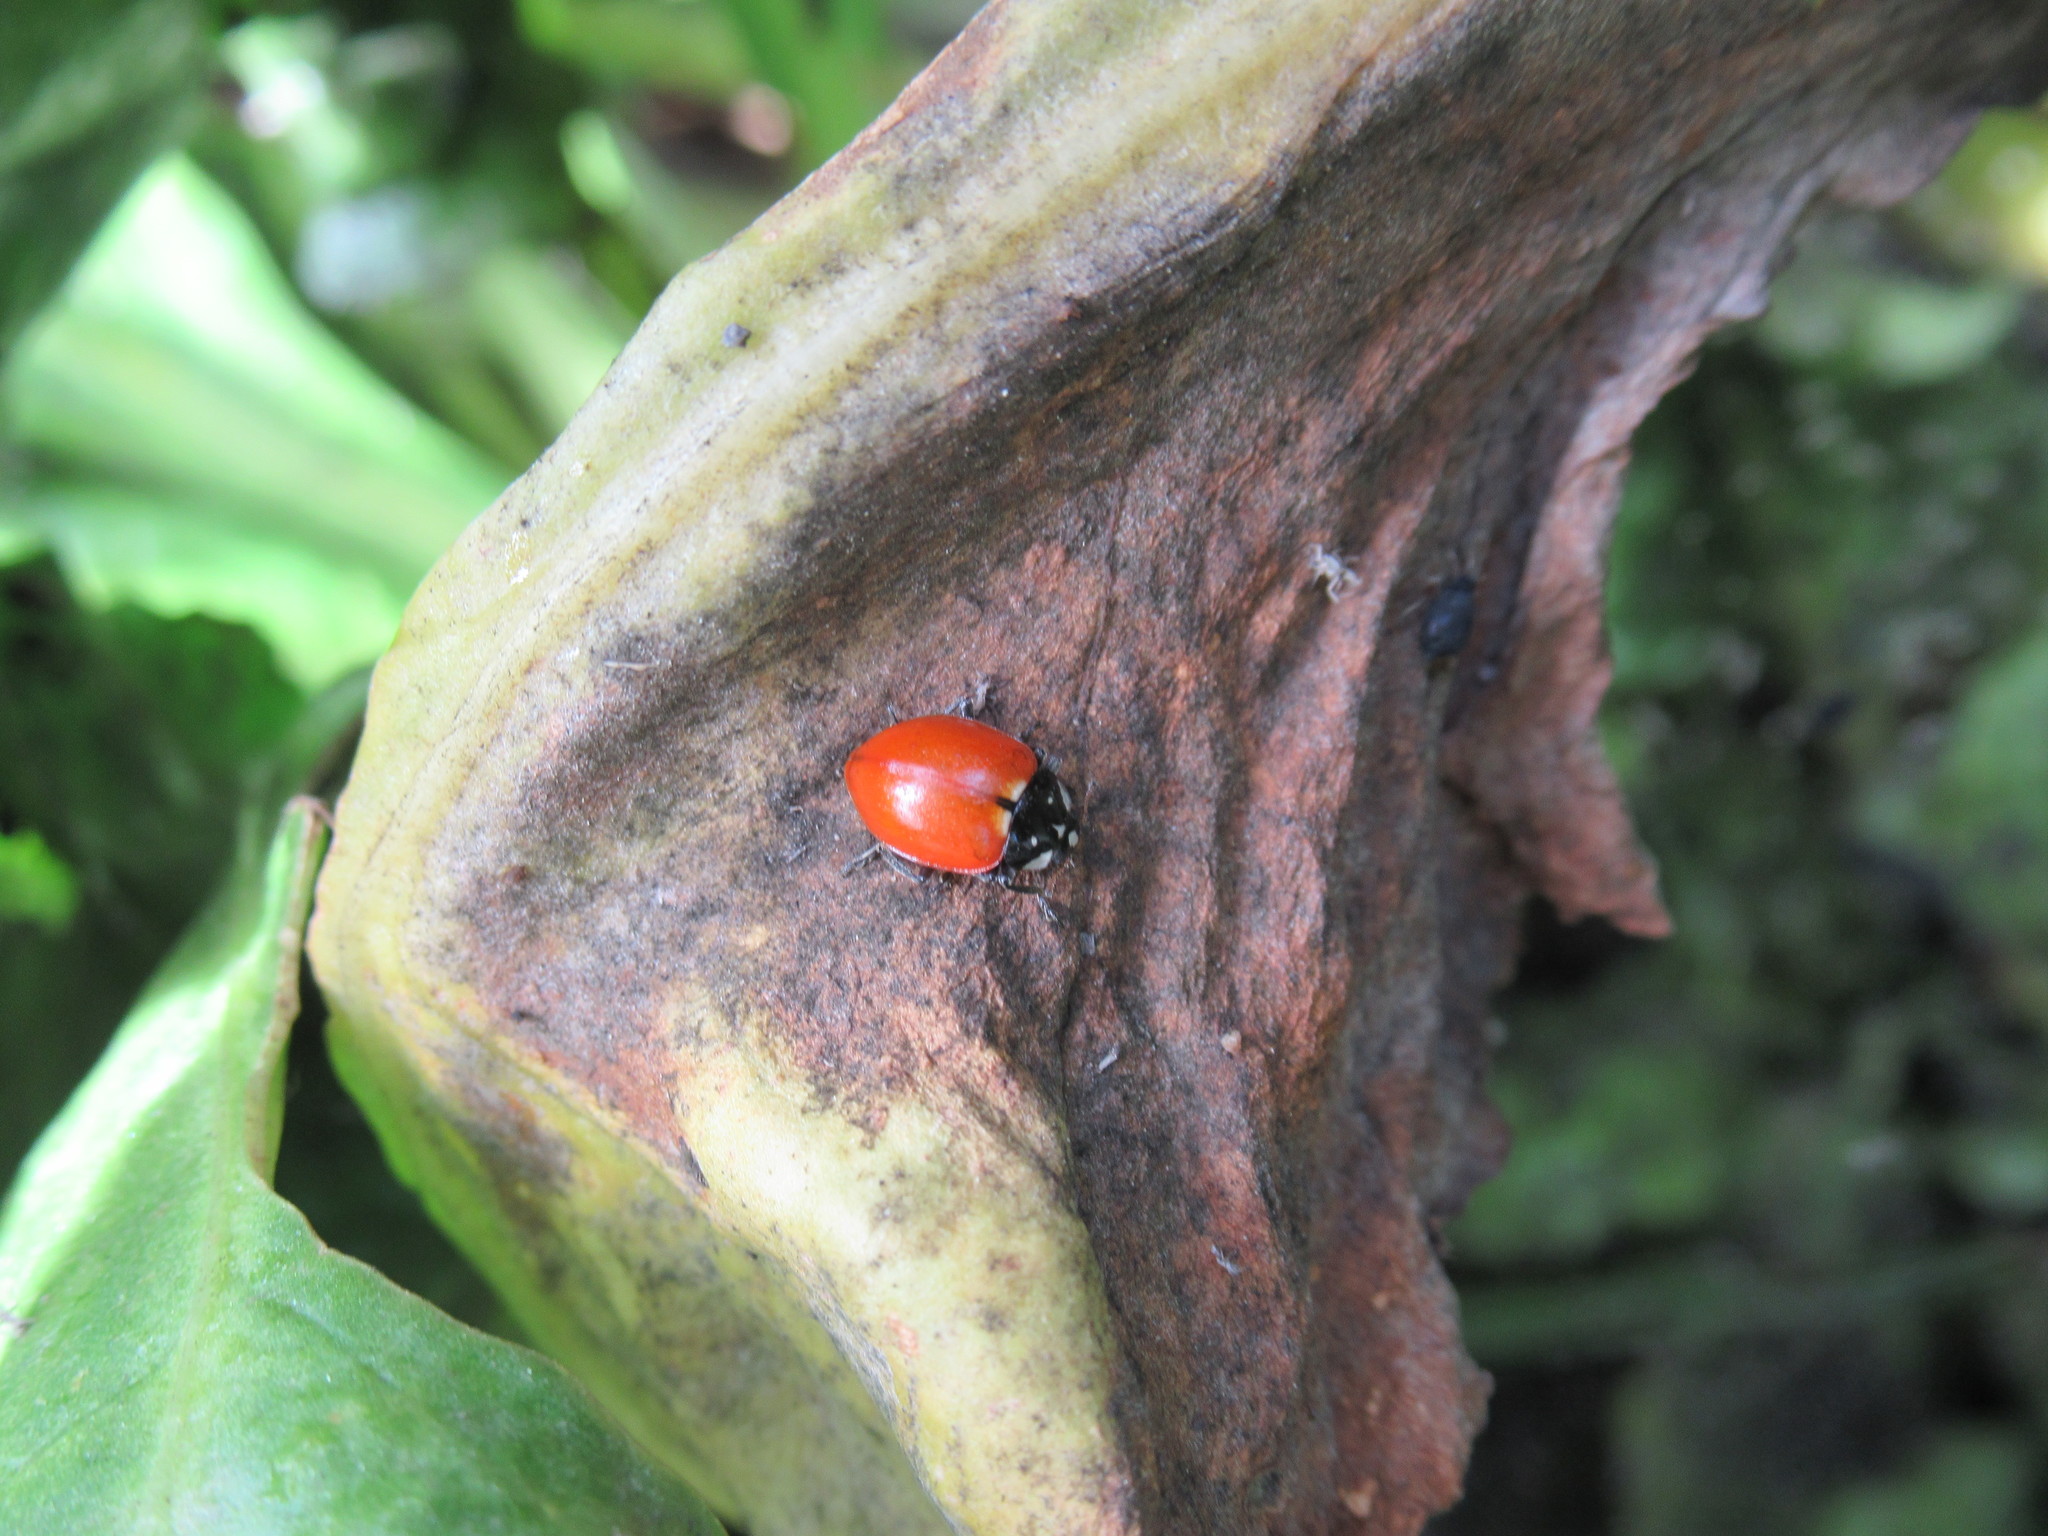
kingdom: Animalia
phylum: Arthropoda
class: Insecta
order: Coleoptera
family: Coccinellidae
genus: Hippodamia
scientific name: Hippodamia quinquesignata
